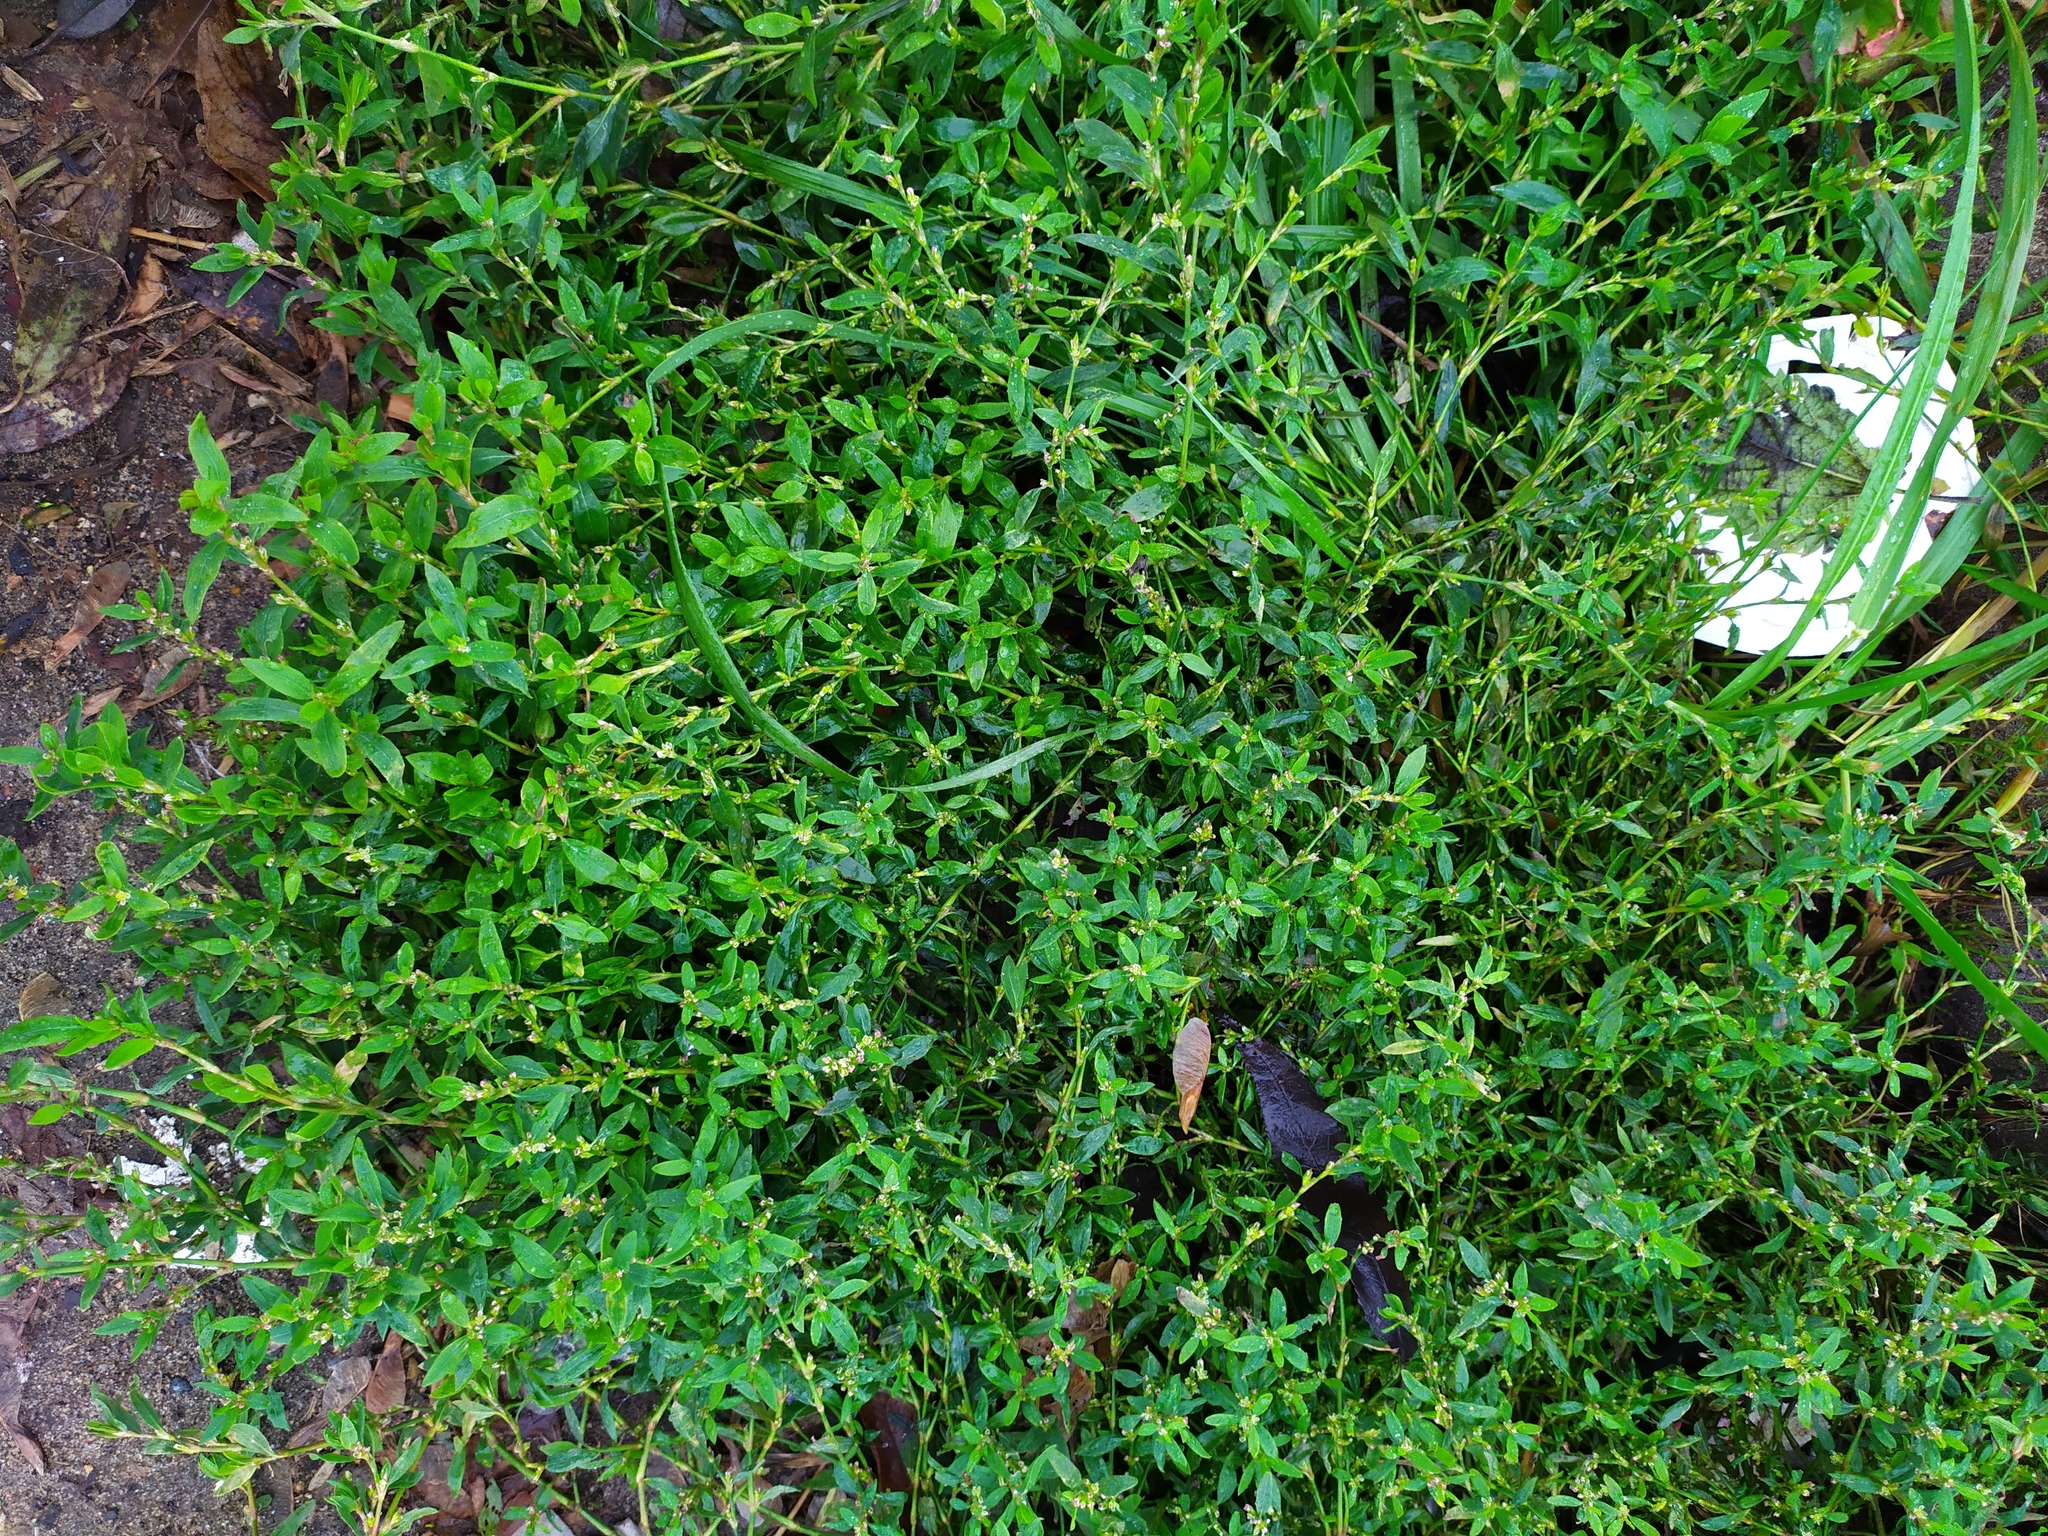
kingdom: Plantae
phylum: Tracheophyta
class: Magnoliopsida
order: Caryophyllales
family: Polygonaceae
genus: Polygonum
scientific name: Polygonum
